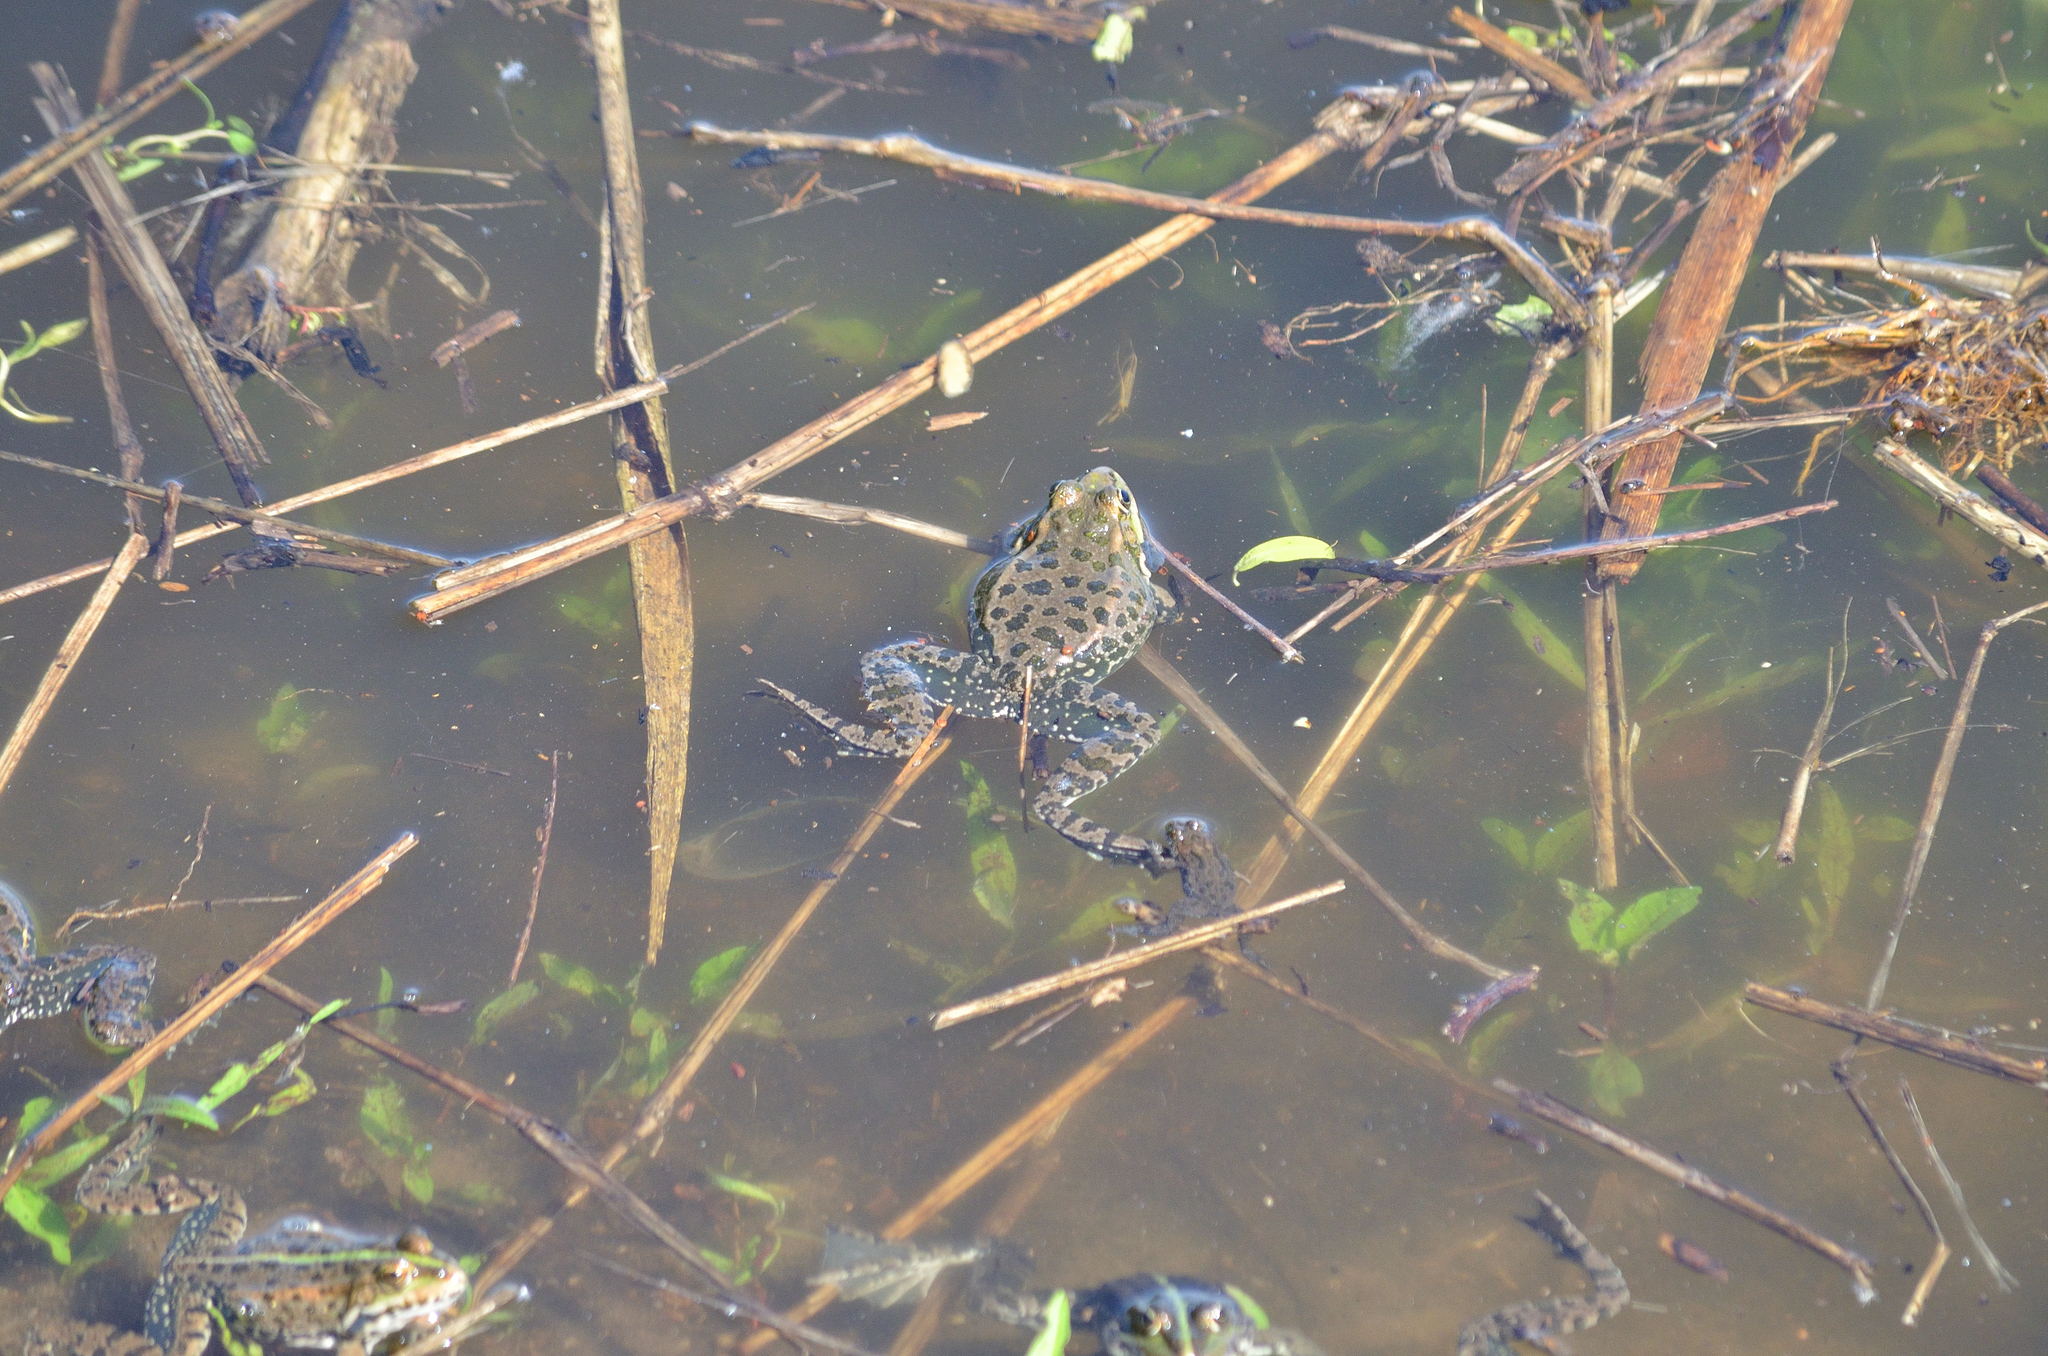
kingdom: Animalia
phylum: Chordata
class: Amphibia
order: Anura
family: Ranidae
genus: Pelophylax
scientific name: Pelophylax ridibundus
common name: Marsh frog
